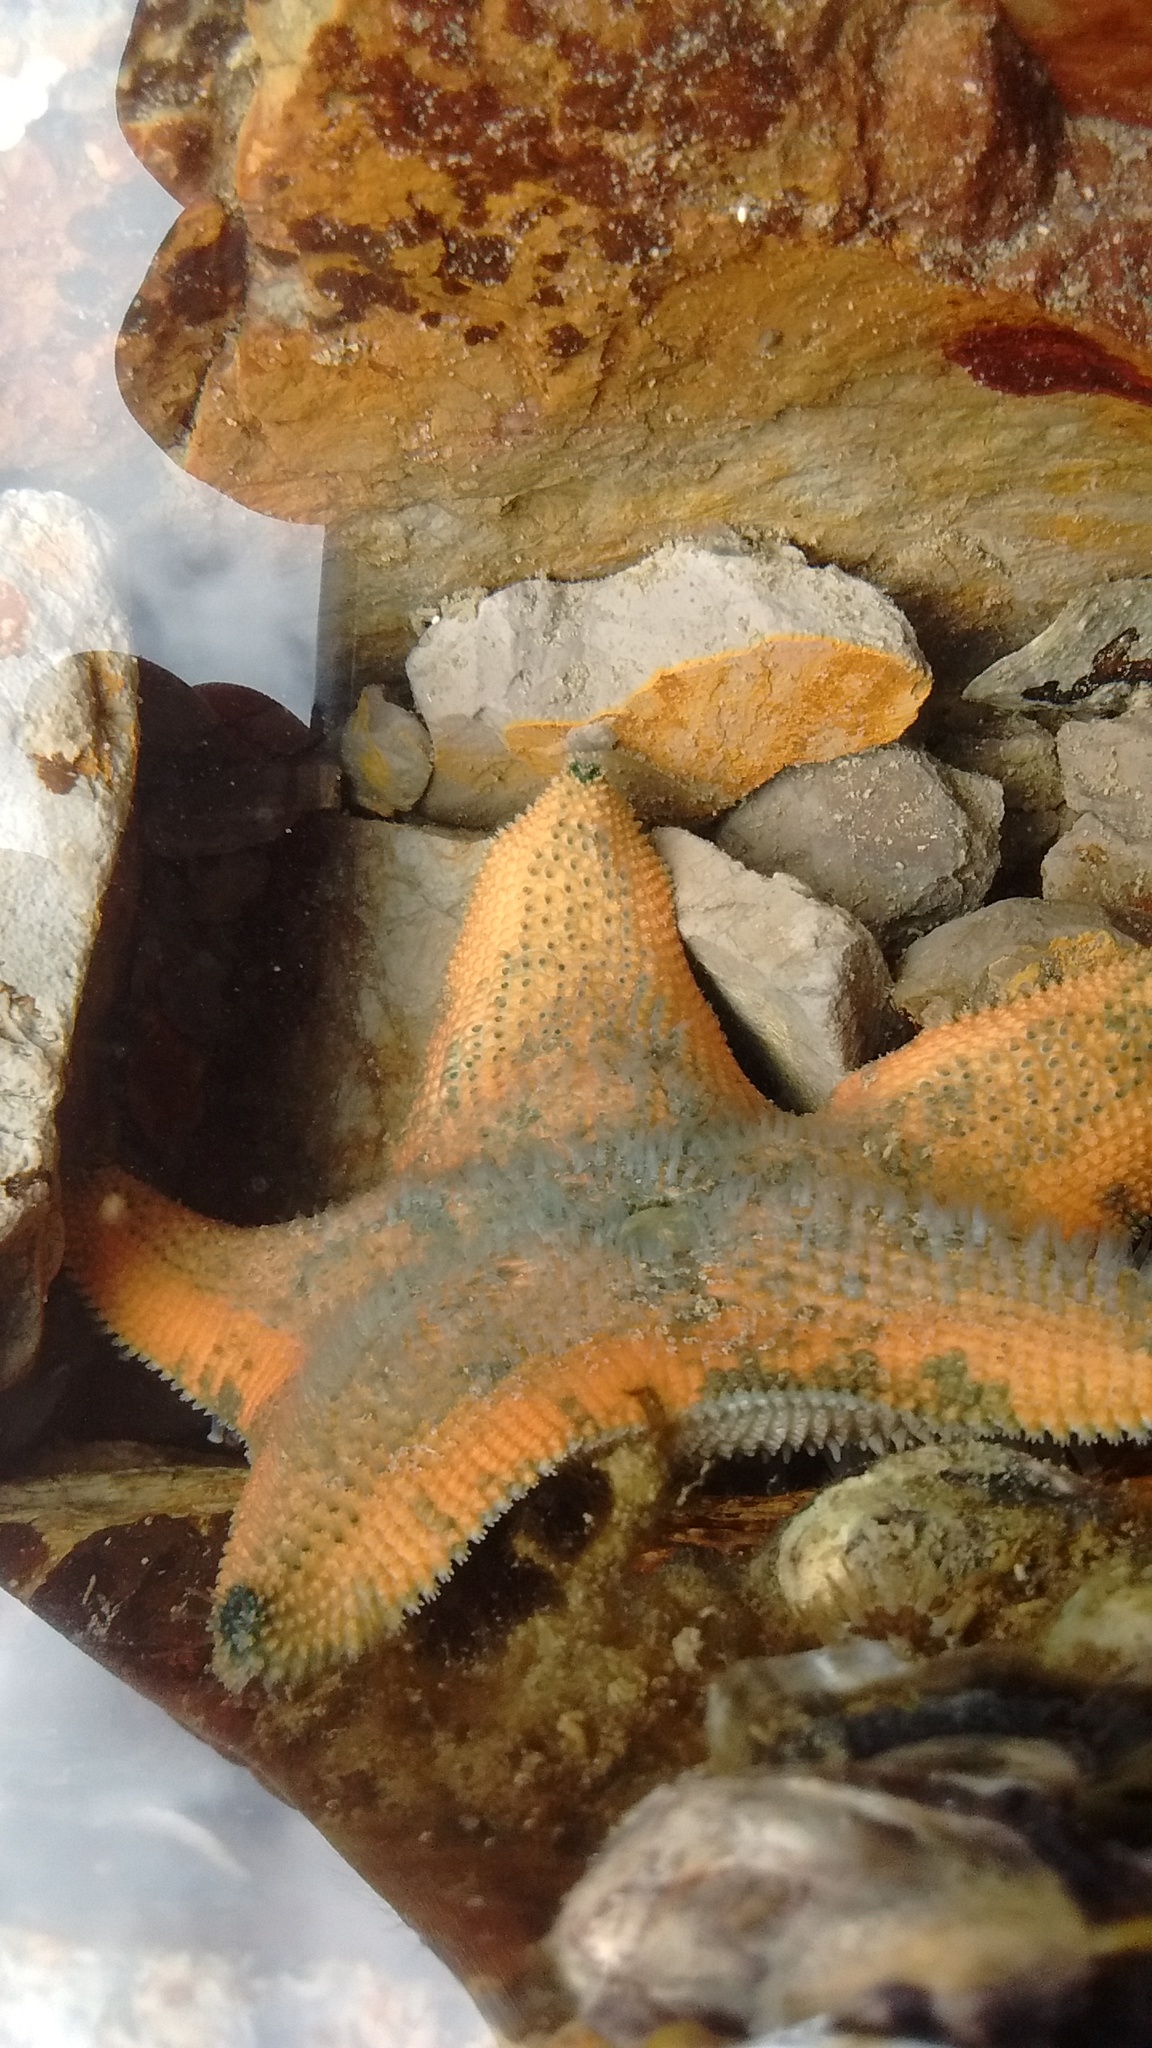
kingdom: Animalia
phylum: Echinodermata
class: Asteroidea
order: Valvatida
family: Asterinidae
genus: Patiriella
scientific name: Patiriella regularis
